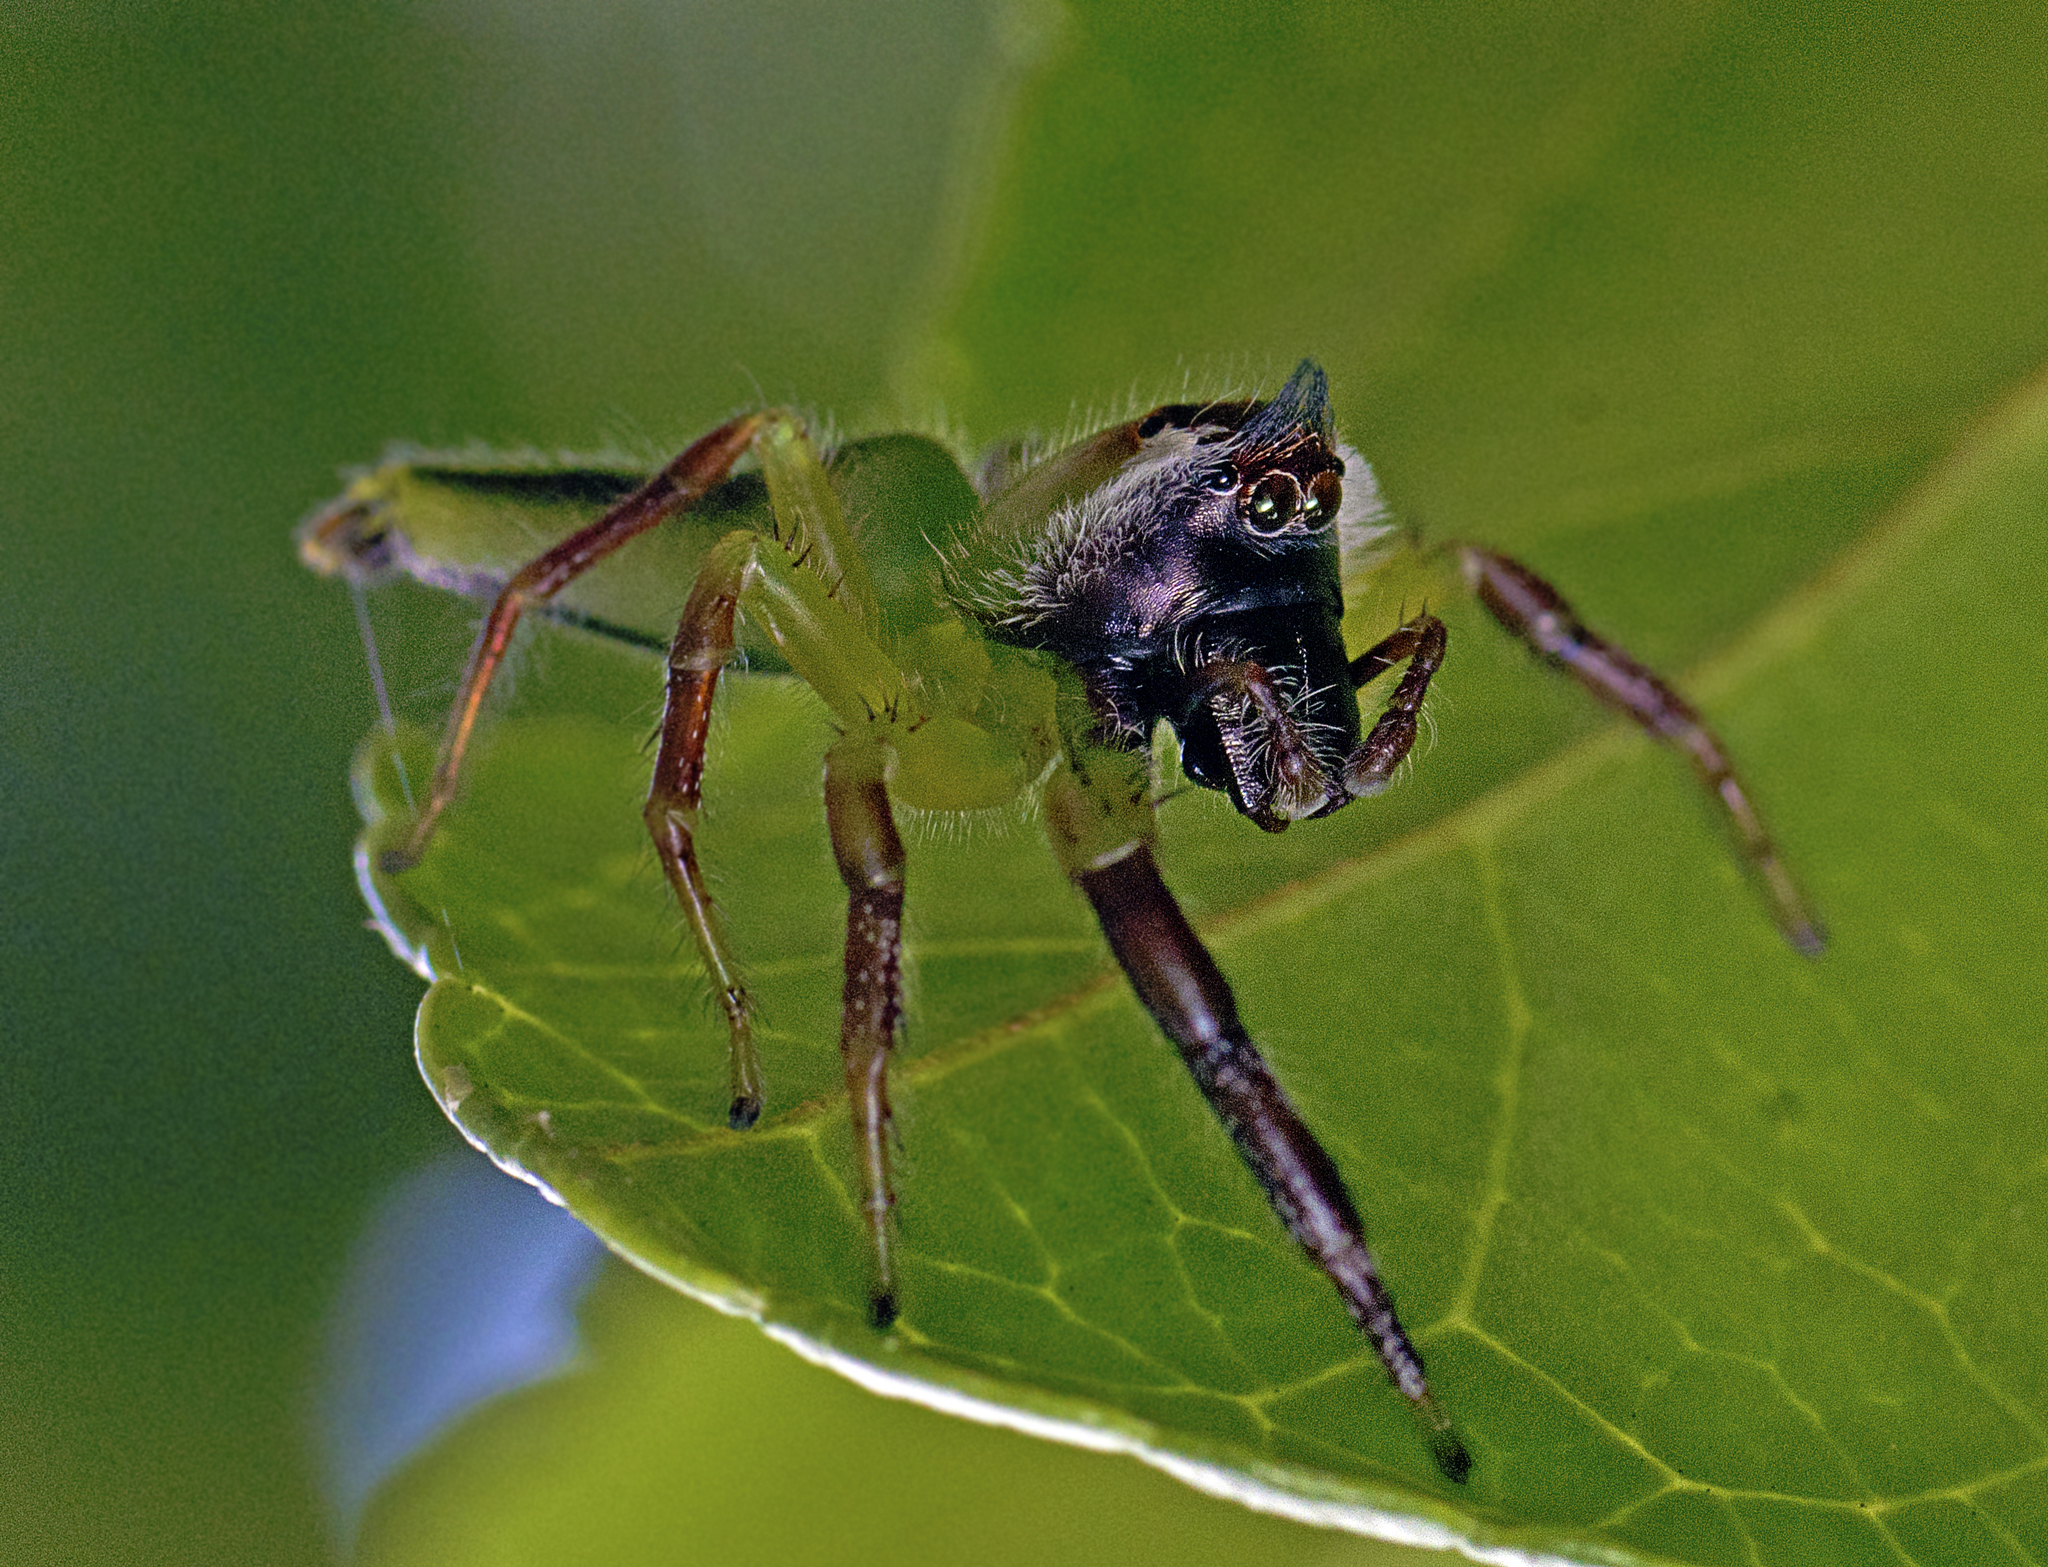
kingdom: Animalia
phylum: Arthropoda
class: Arachnida
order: Araneae
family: Salticidae
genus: Mopsus
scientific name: Mopsus mormon
